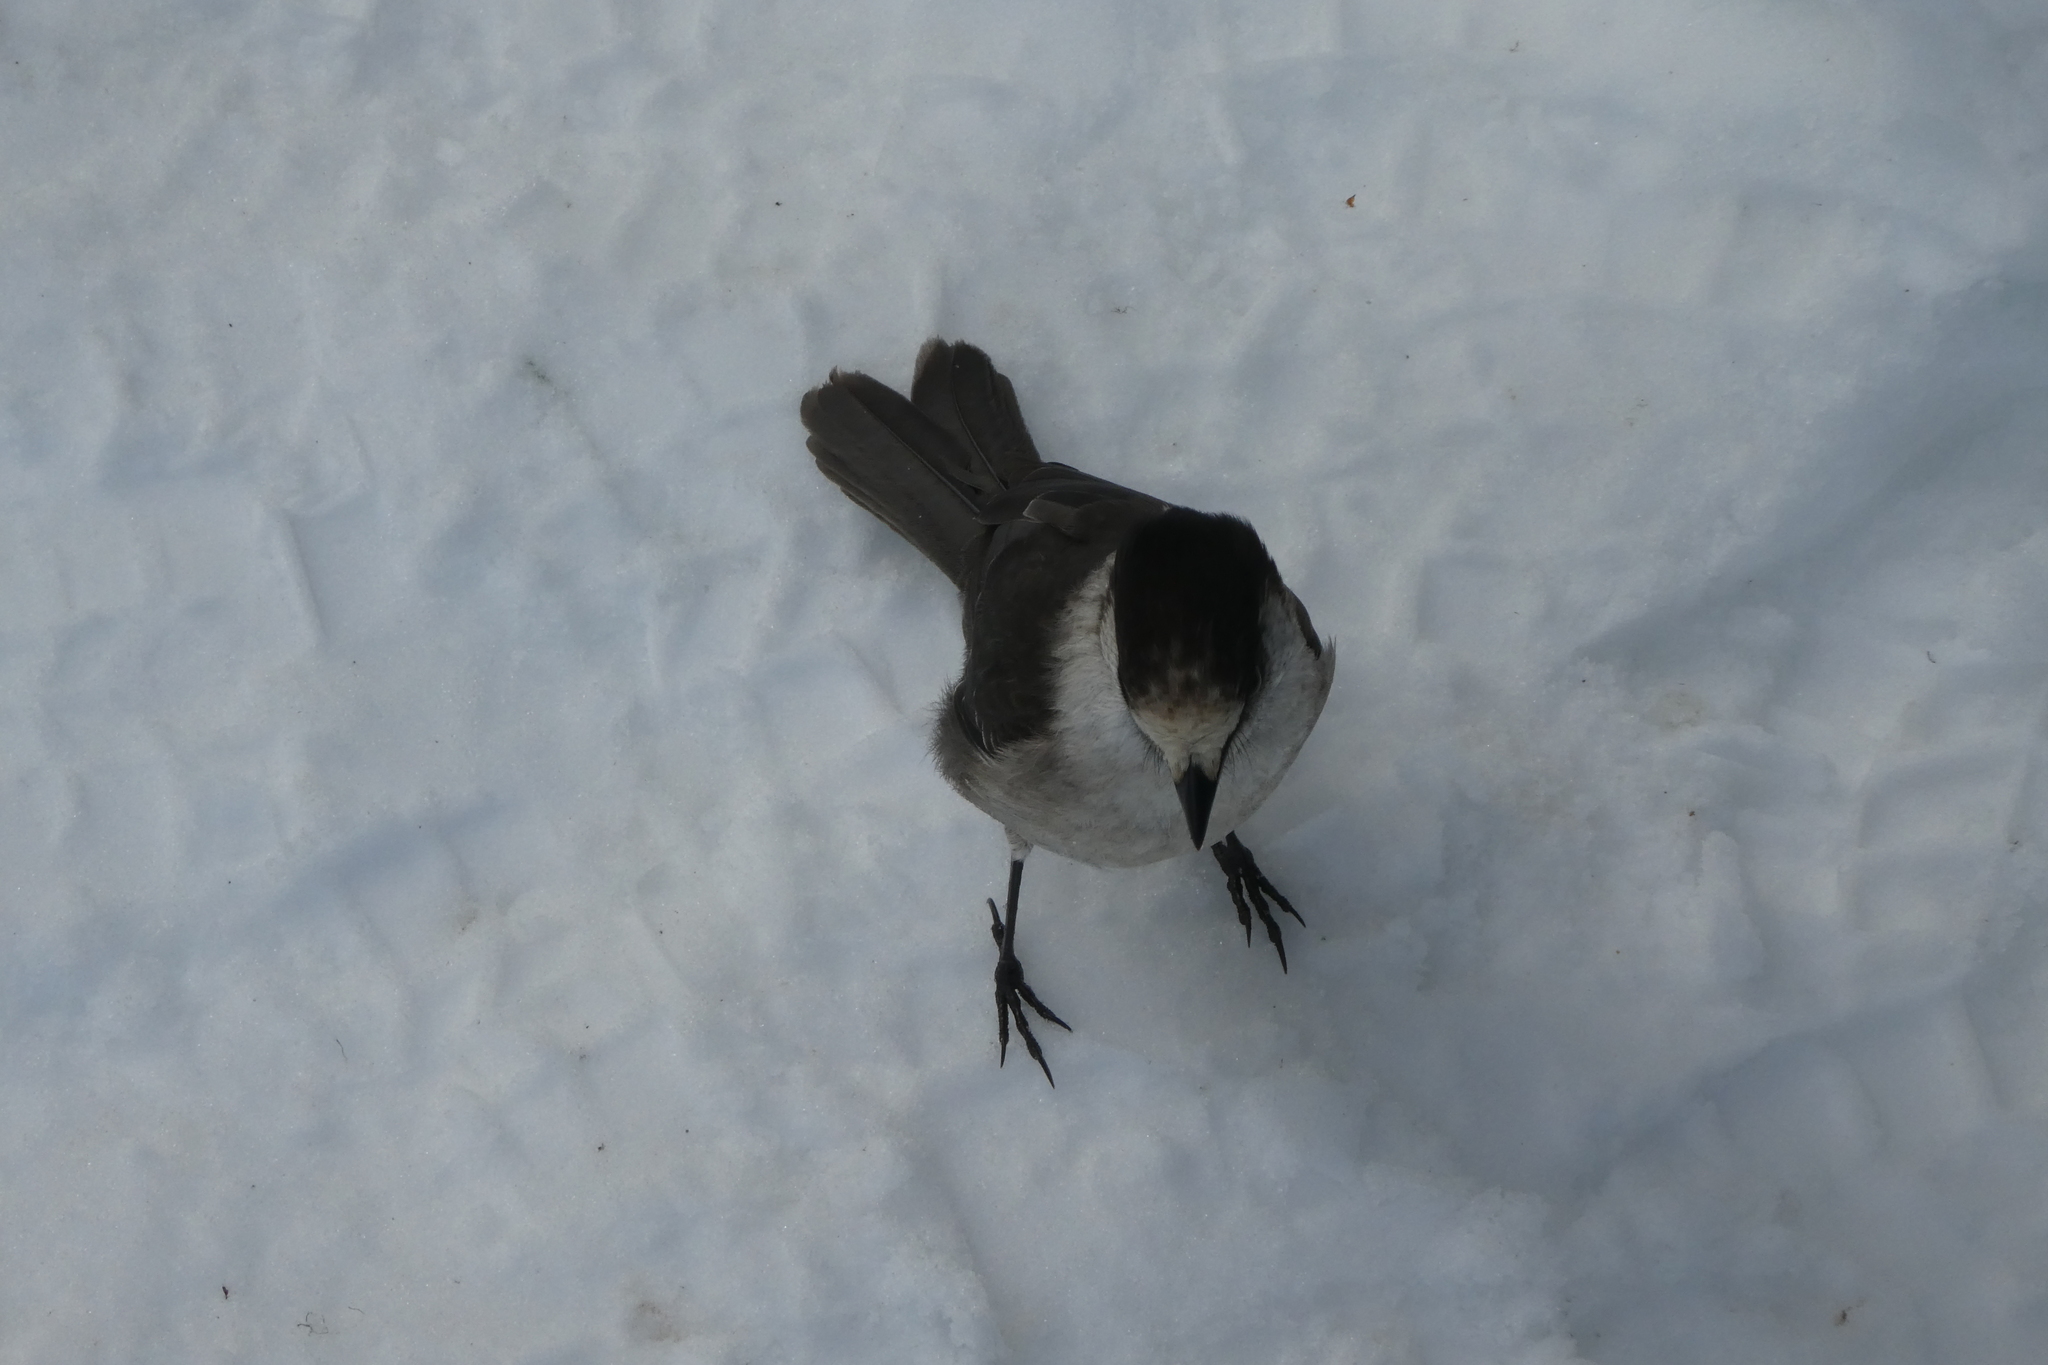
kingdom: Animalia
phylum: Chordata
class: Aves
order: Passeriformes
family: Corvidae
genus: Perisoreus
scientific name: Perisoreus canadensis
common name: Gray jay
